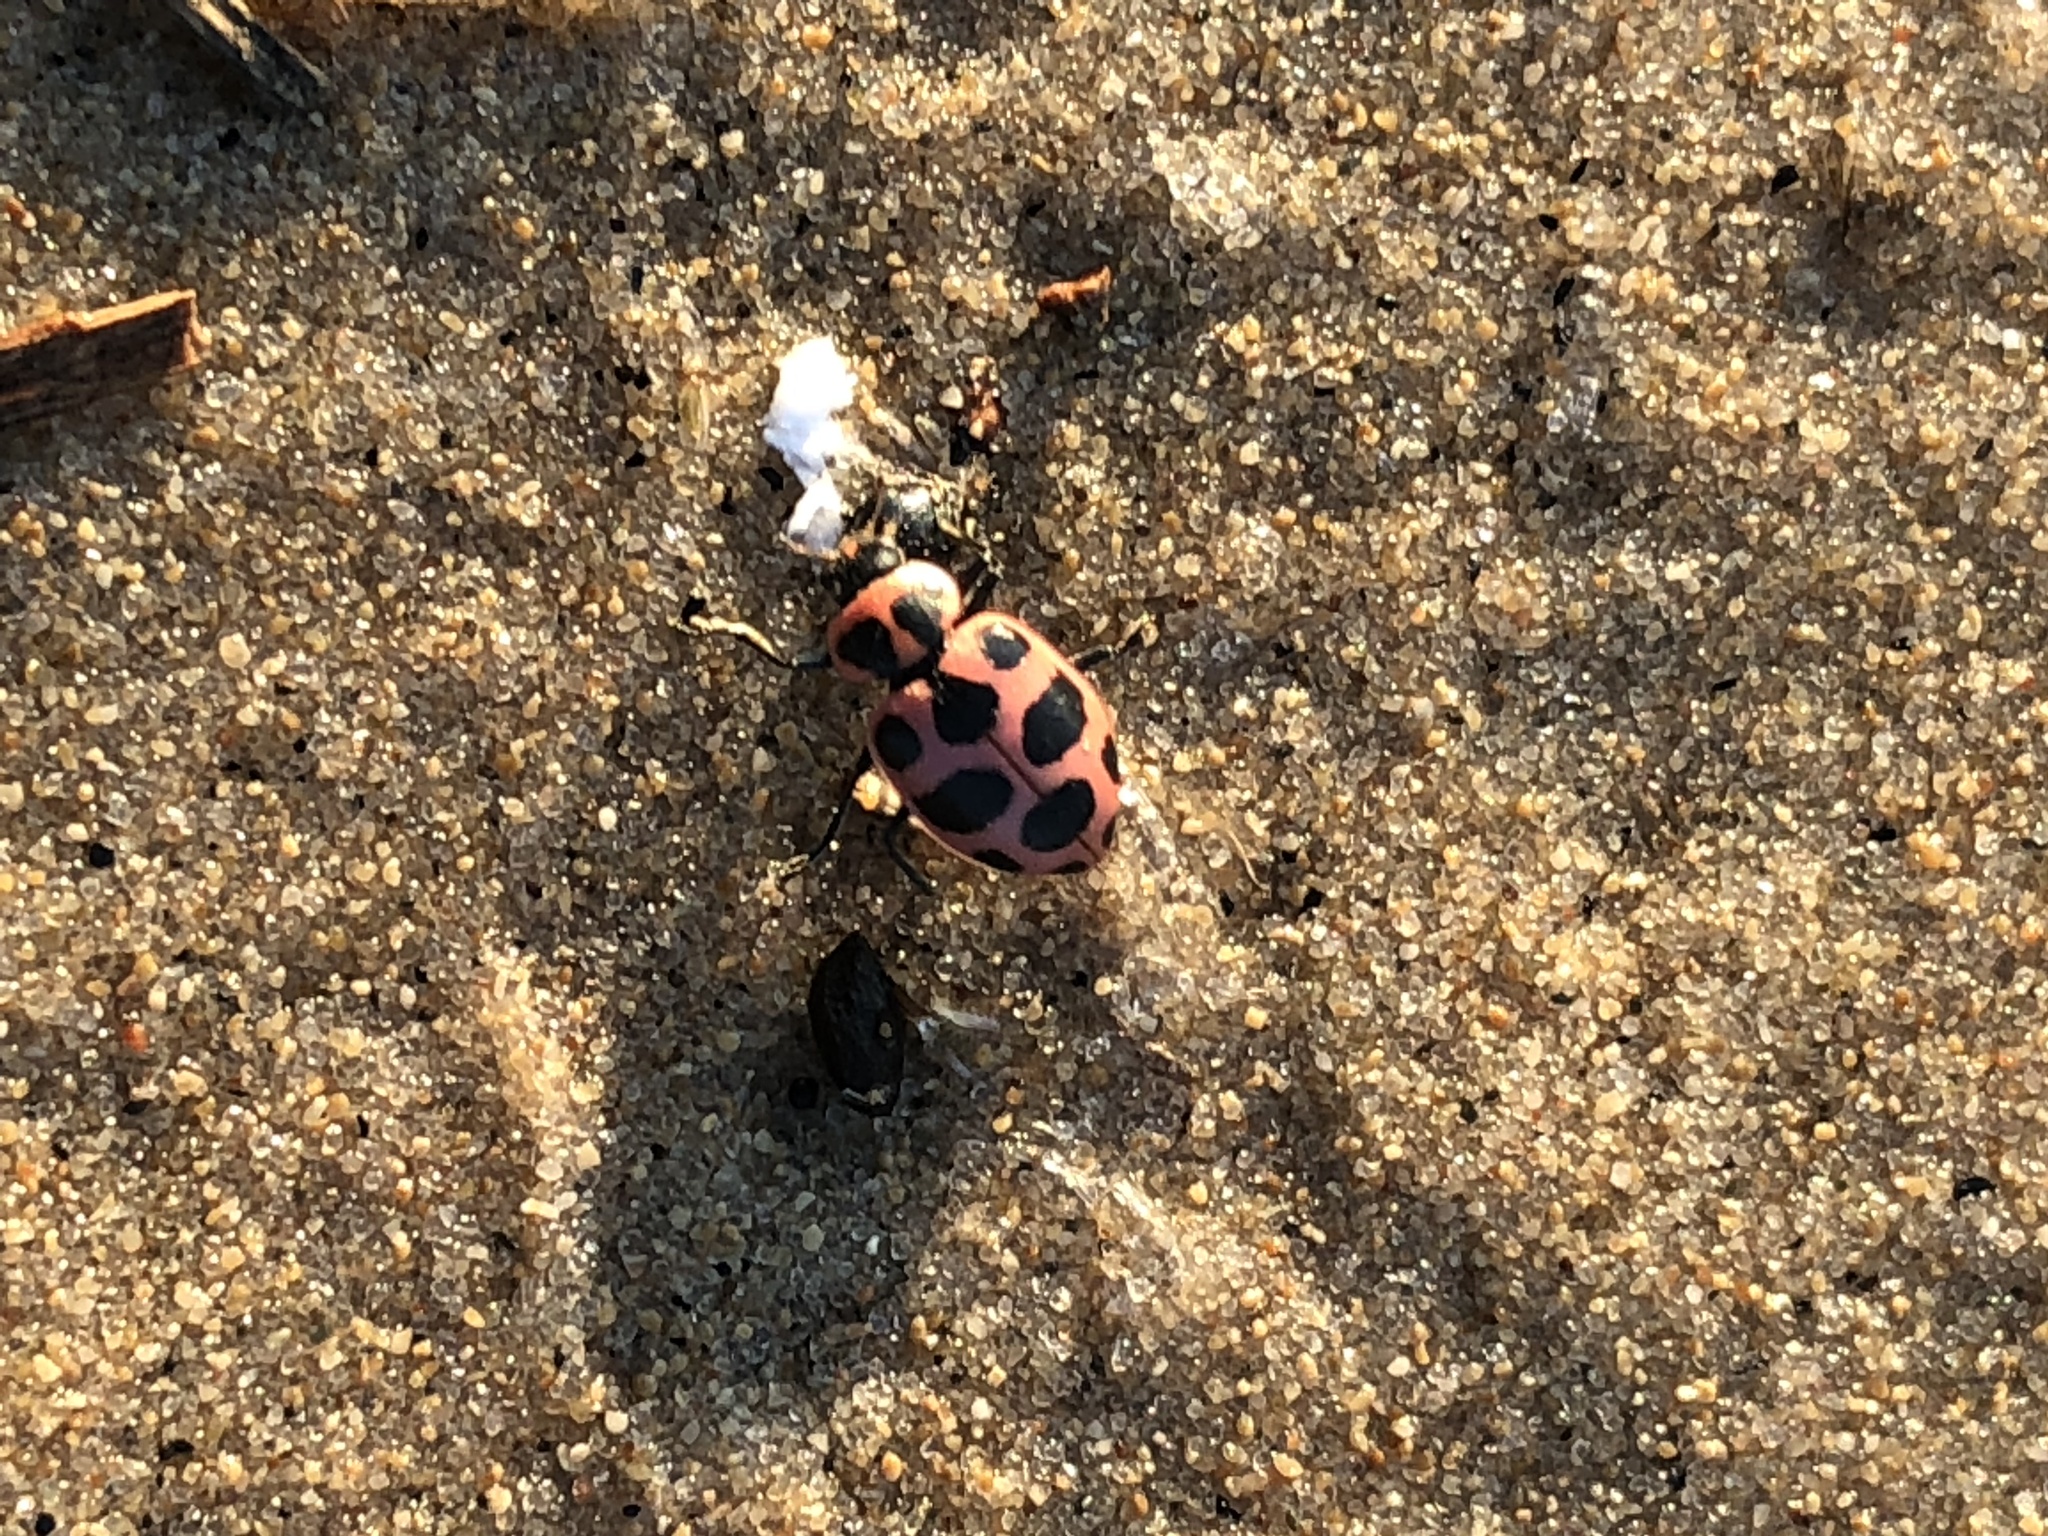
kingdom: Animalia
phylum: Arthropoda
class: Insecta
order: Coleoptera
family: Coccinellidae
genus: Coleomegilla
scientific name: Coleomegilla maculata
